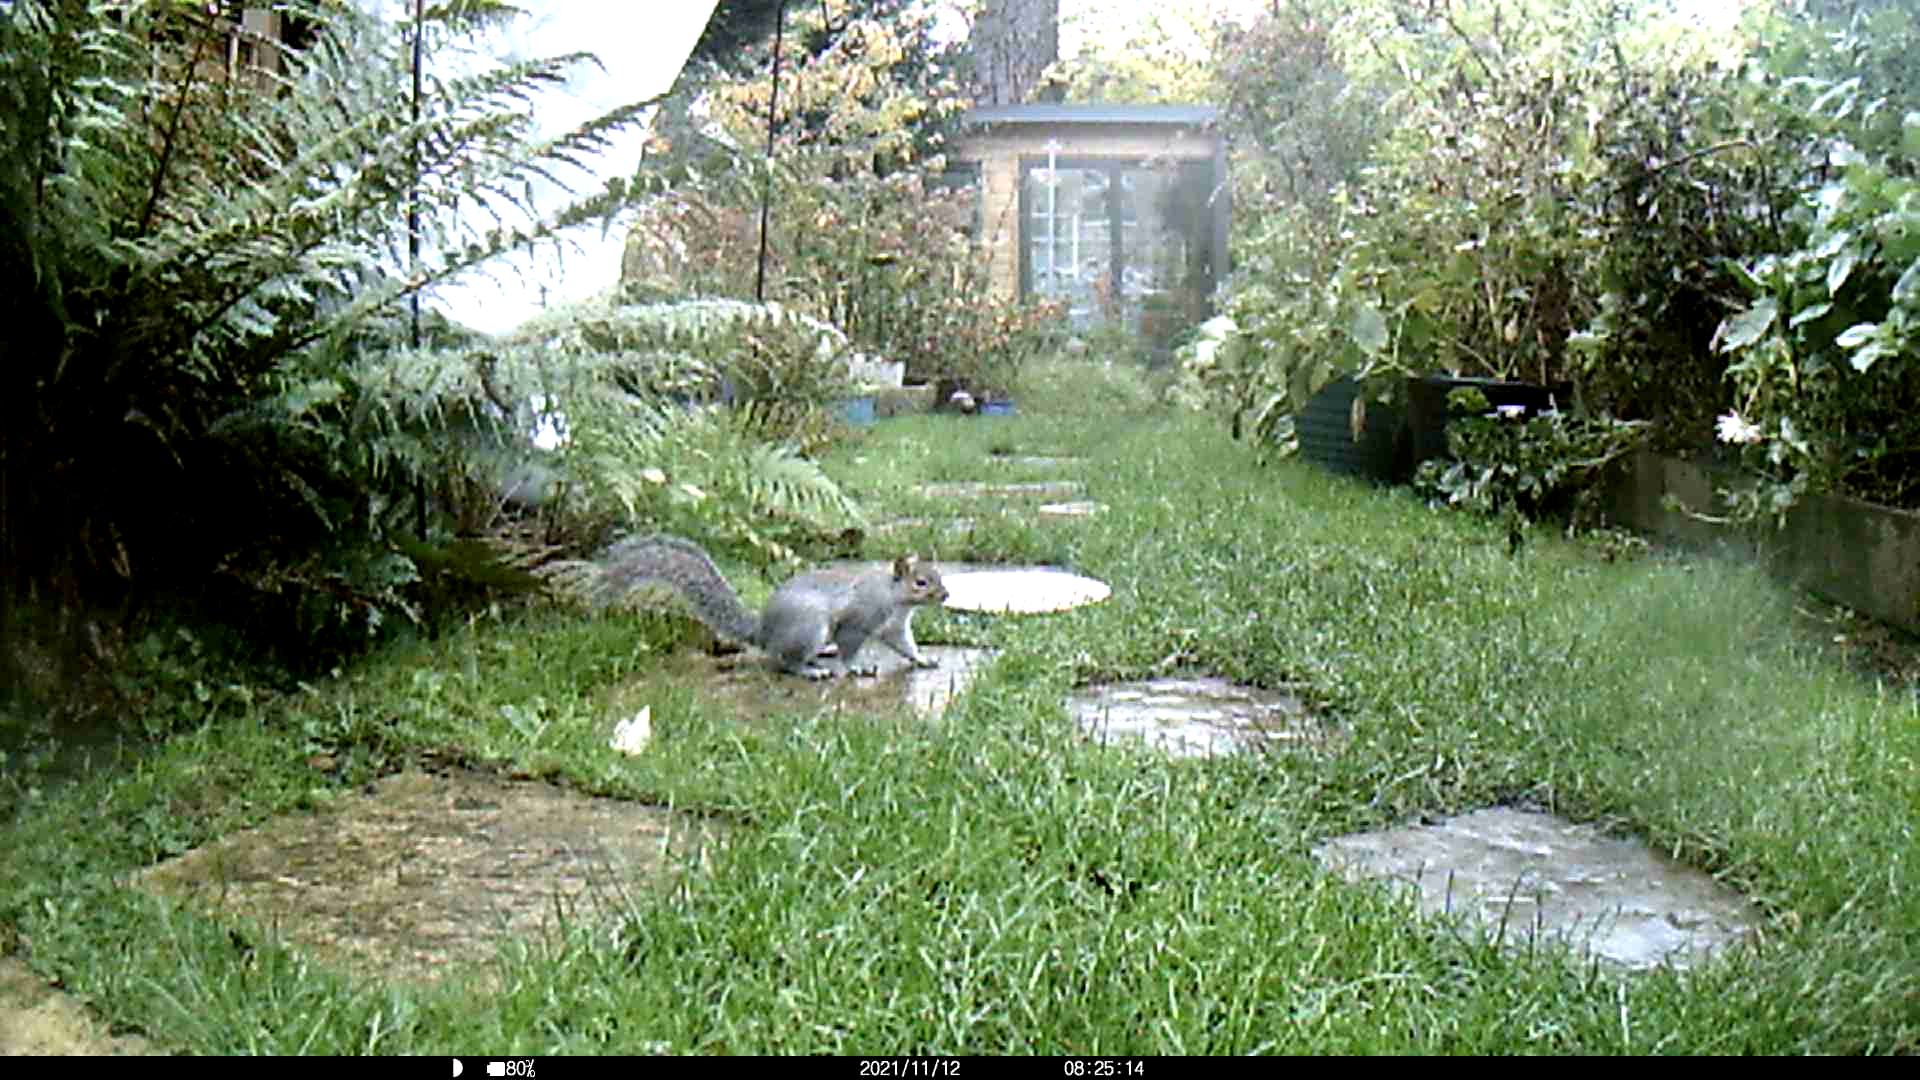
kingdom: Animalia
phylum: Chordata
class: Mammalia
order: Rodentia
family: Sciuridae
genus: Sciurus
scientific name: Sciurus carolinensis
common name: Eastern gray squirrel
